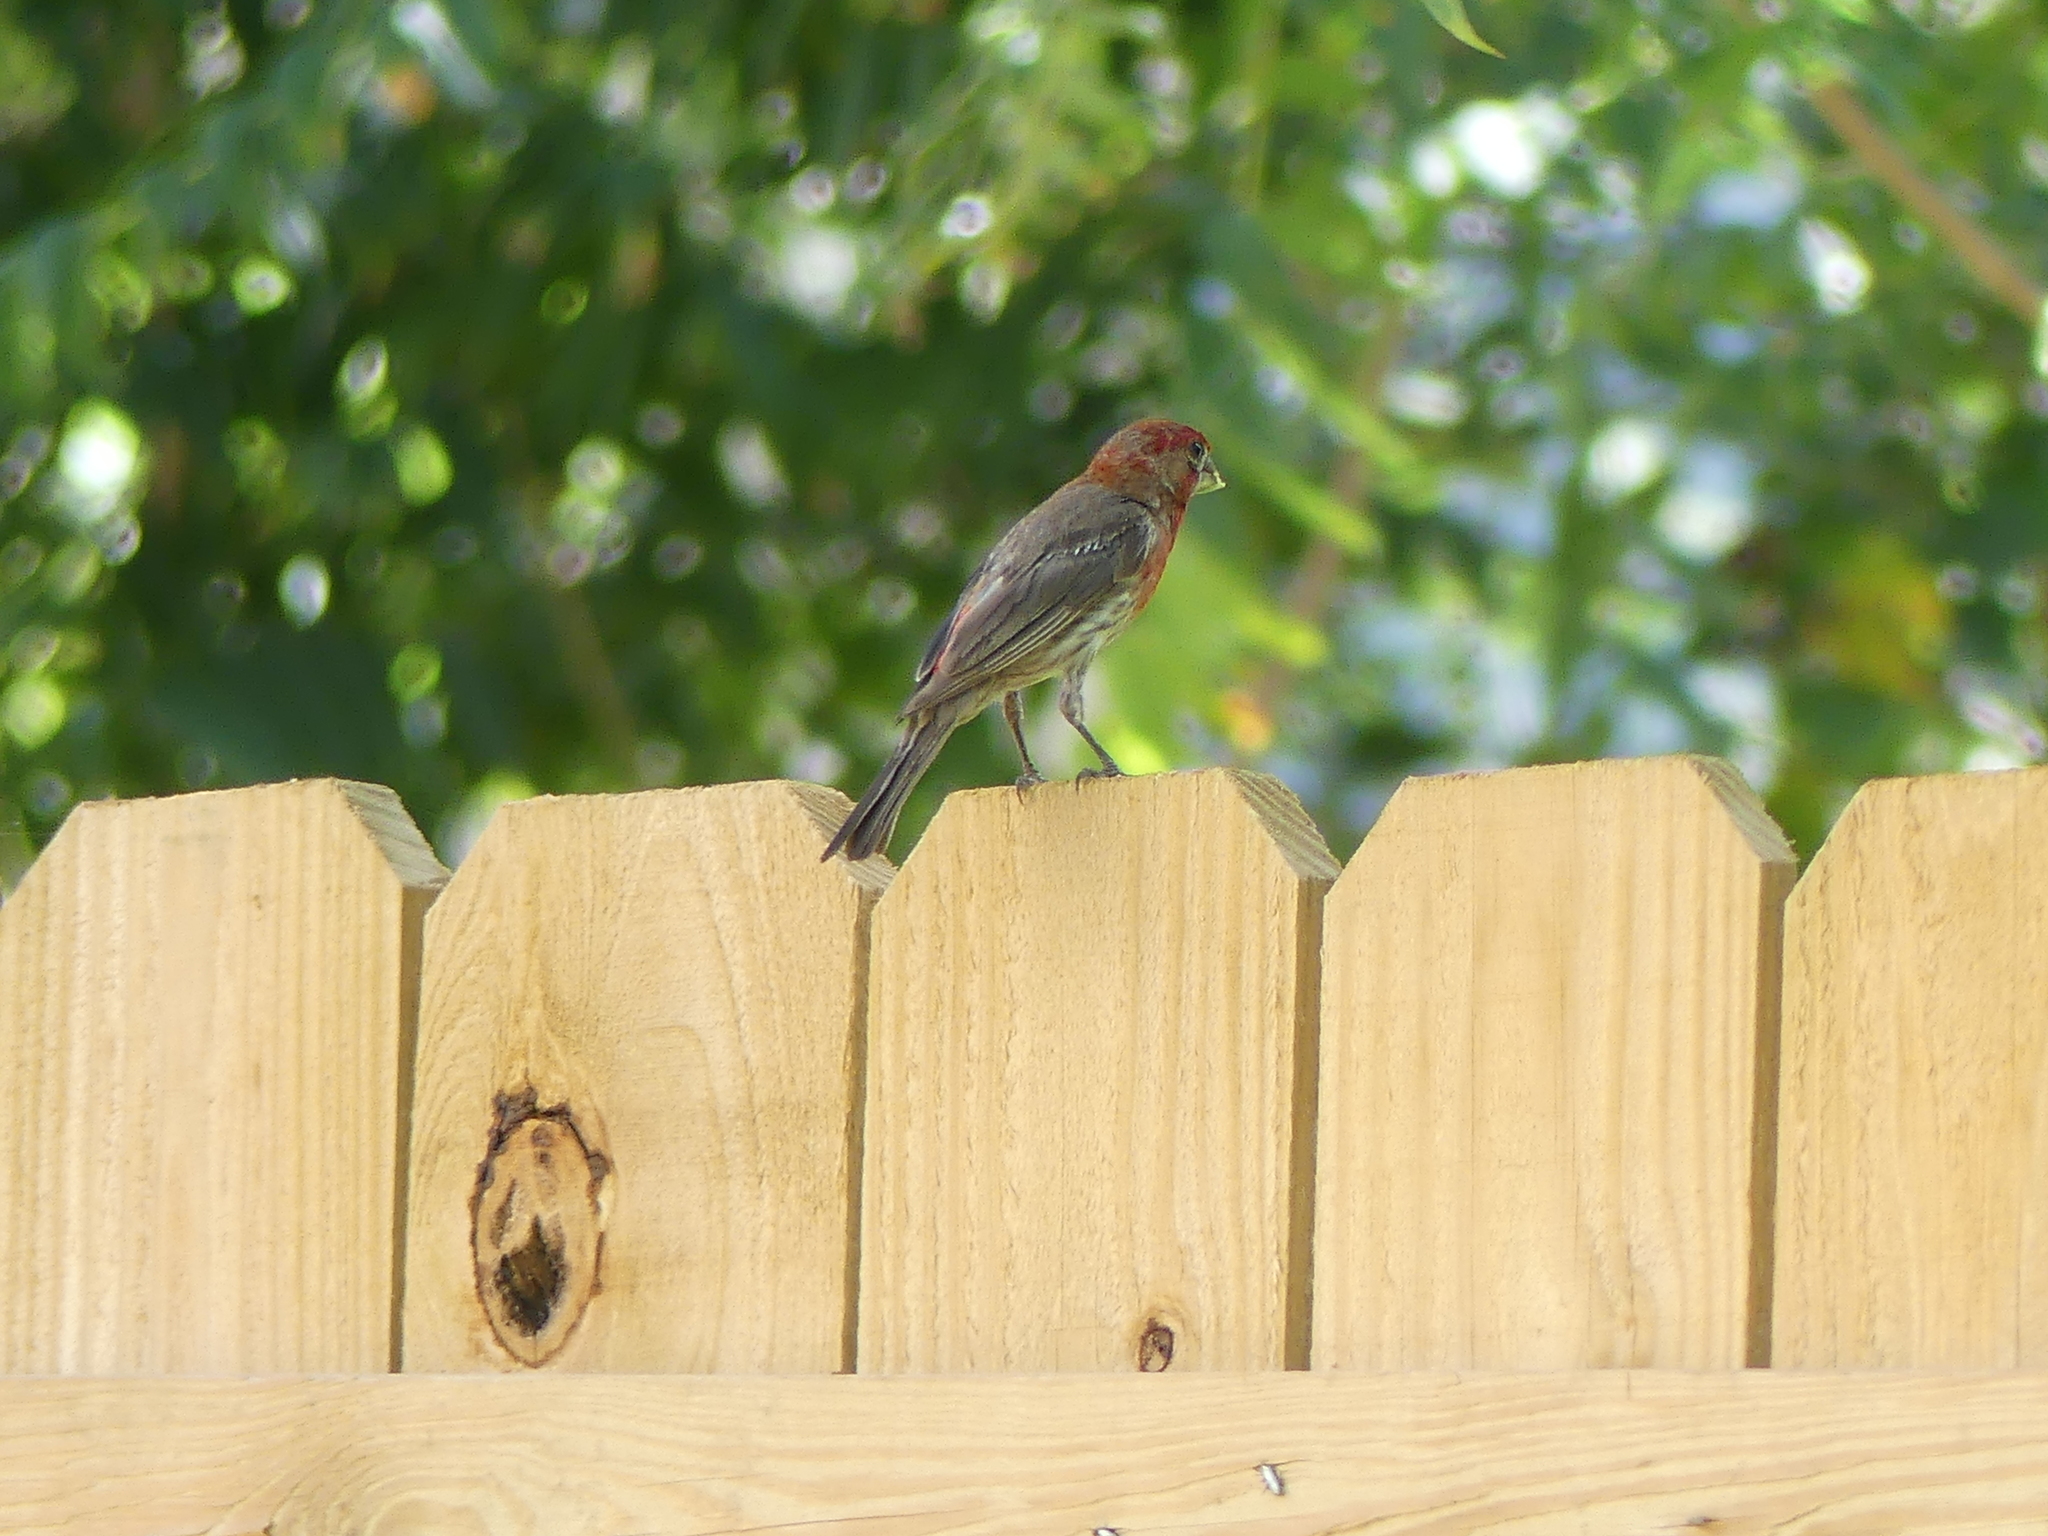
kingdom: Animalia
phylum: Chordata
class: Aves
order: Passeriformes
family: Fringillidae
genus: Haemorhous
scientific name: Haemorhous mexicanus
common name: House finch
